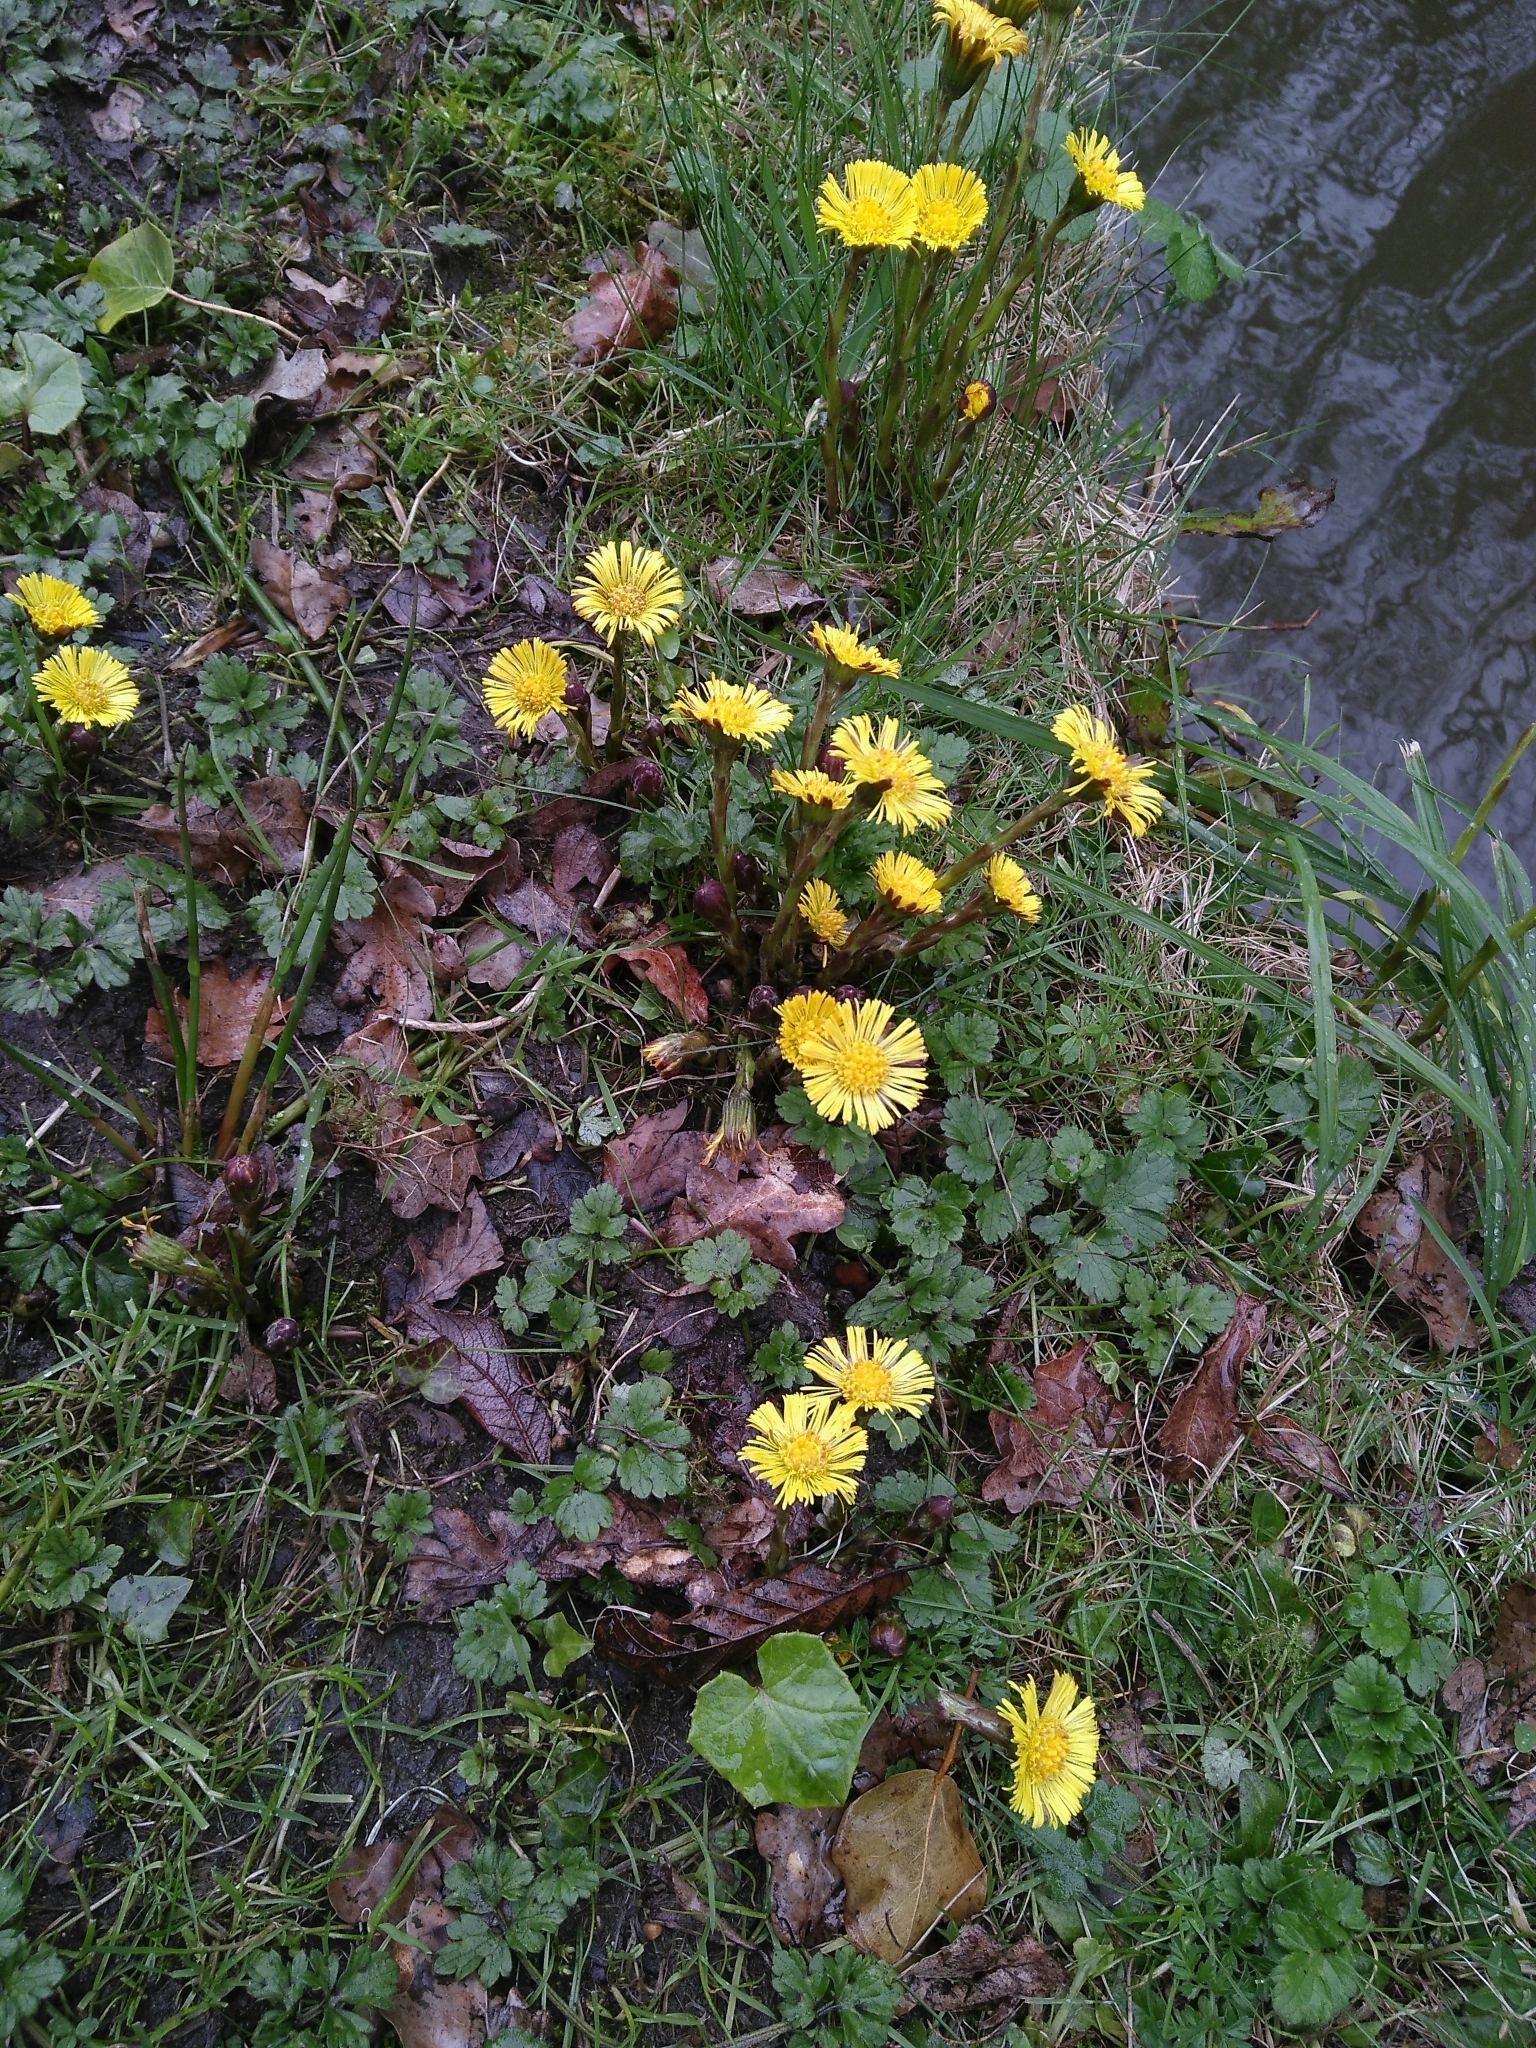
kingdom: Plantae
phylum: Tracheophyta
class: Magnoliopsida
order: Asterales
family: Asteraceae
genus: Tussilago
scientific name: Tussilago farfara
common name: Coltsfoot
